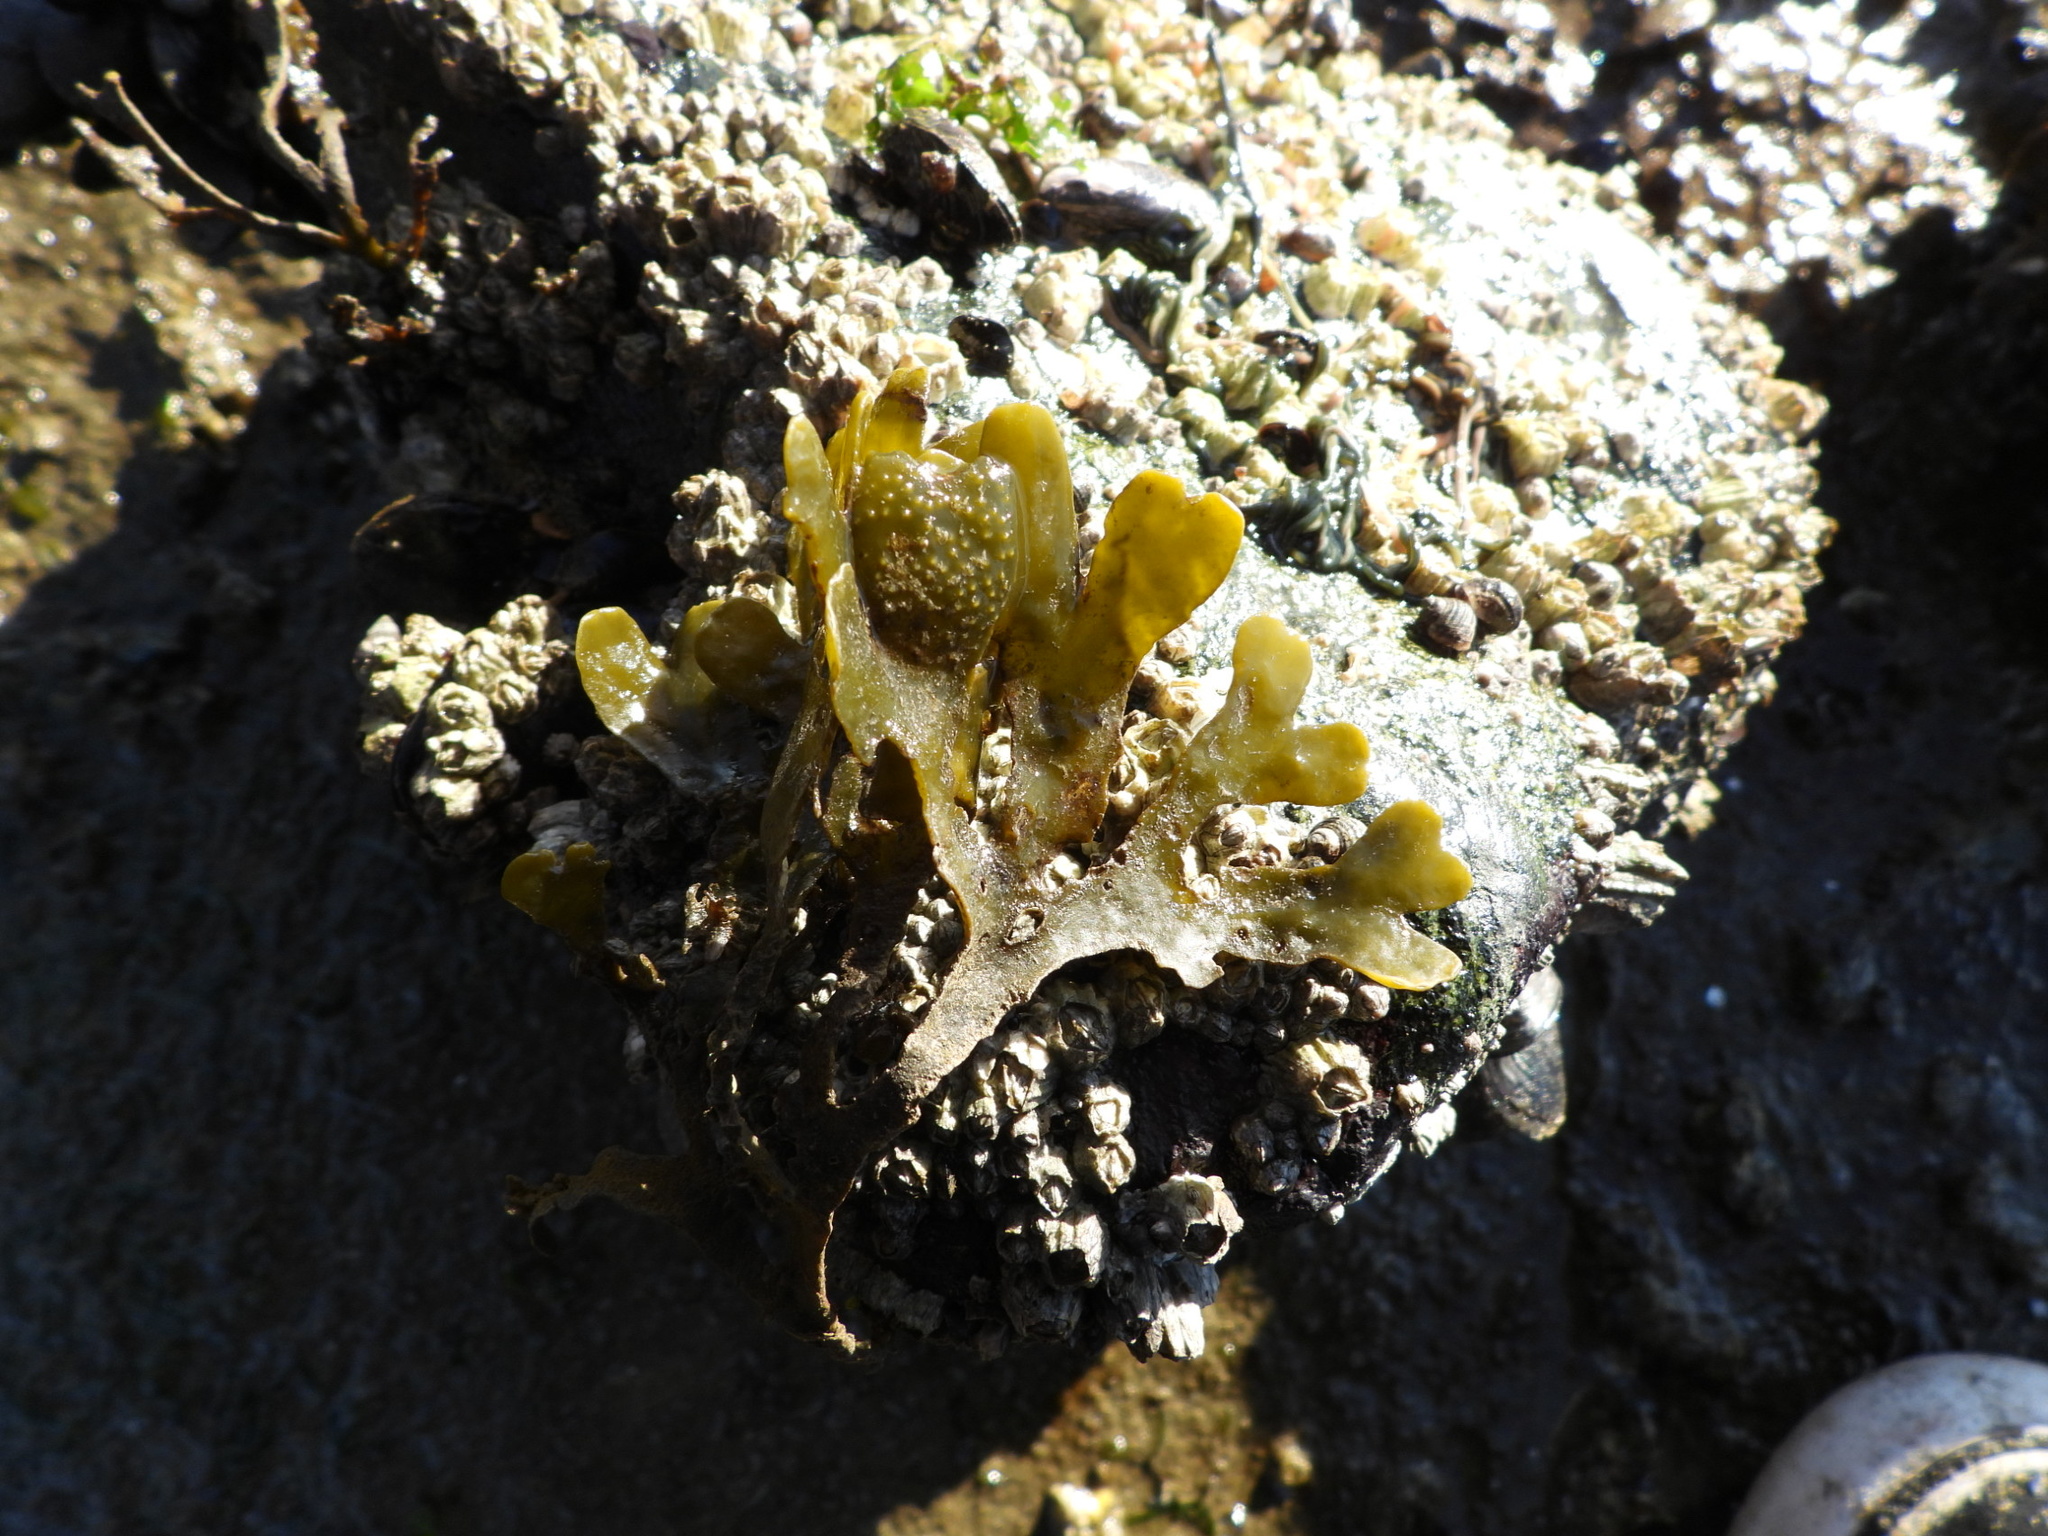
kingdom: Chromista
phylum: Ochrophyta
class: Phaeophyceae
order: Fucales
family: Fucaceae
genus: Fucus
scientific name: Fucus distichus
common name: Rockweed
